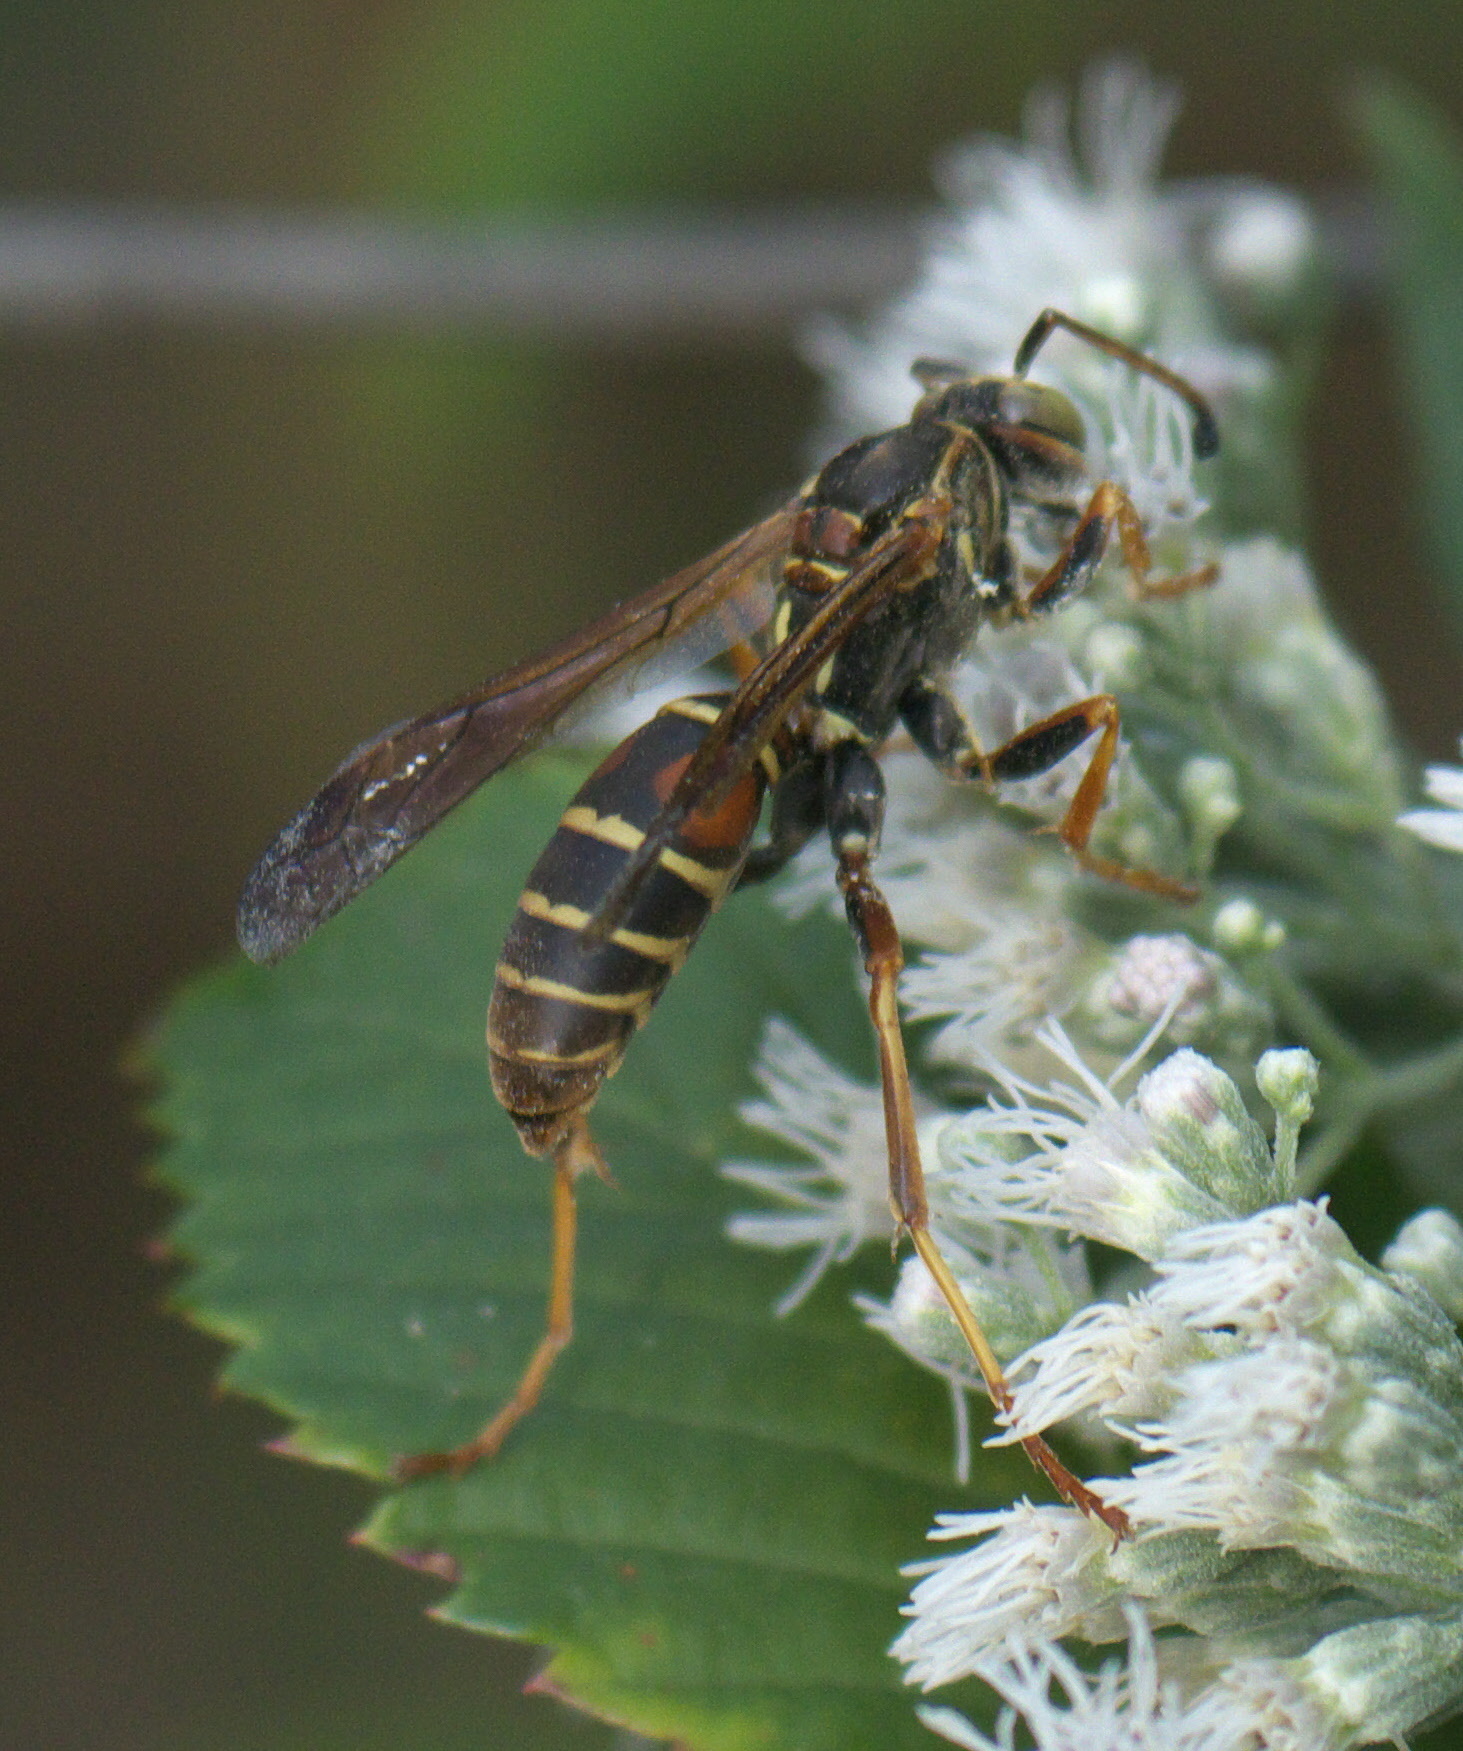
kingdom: Animalia
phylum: Arthropoda
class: Insecta
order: Hymenoptera
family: Eumenidae
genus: Polistes
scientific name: Polistes fuscatus
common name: Dark paper wasp
